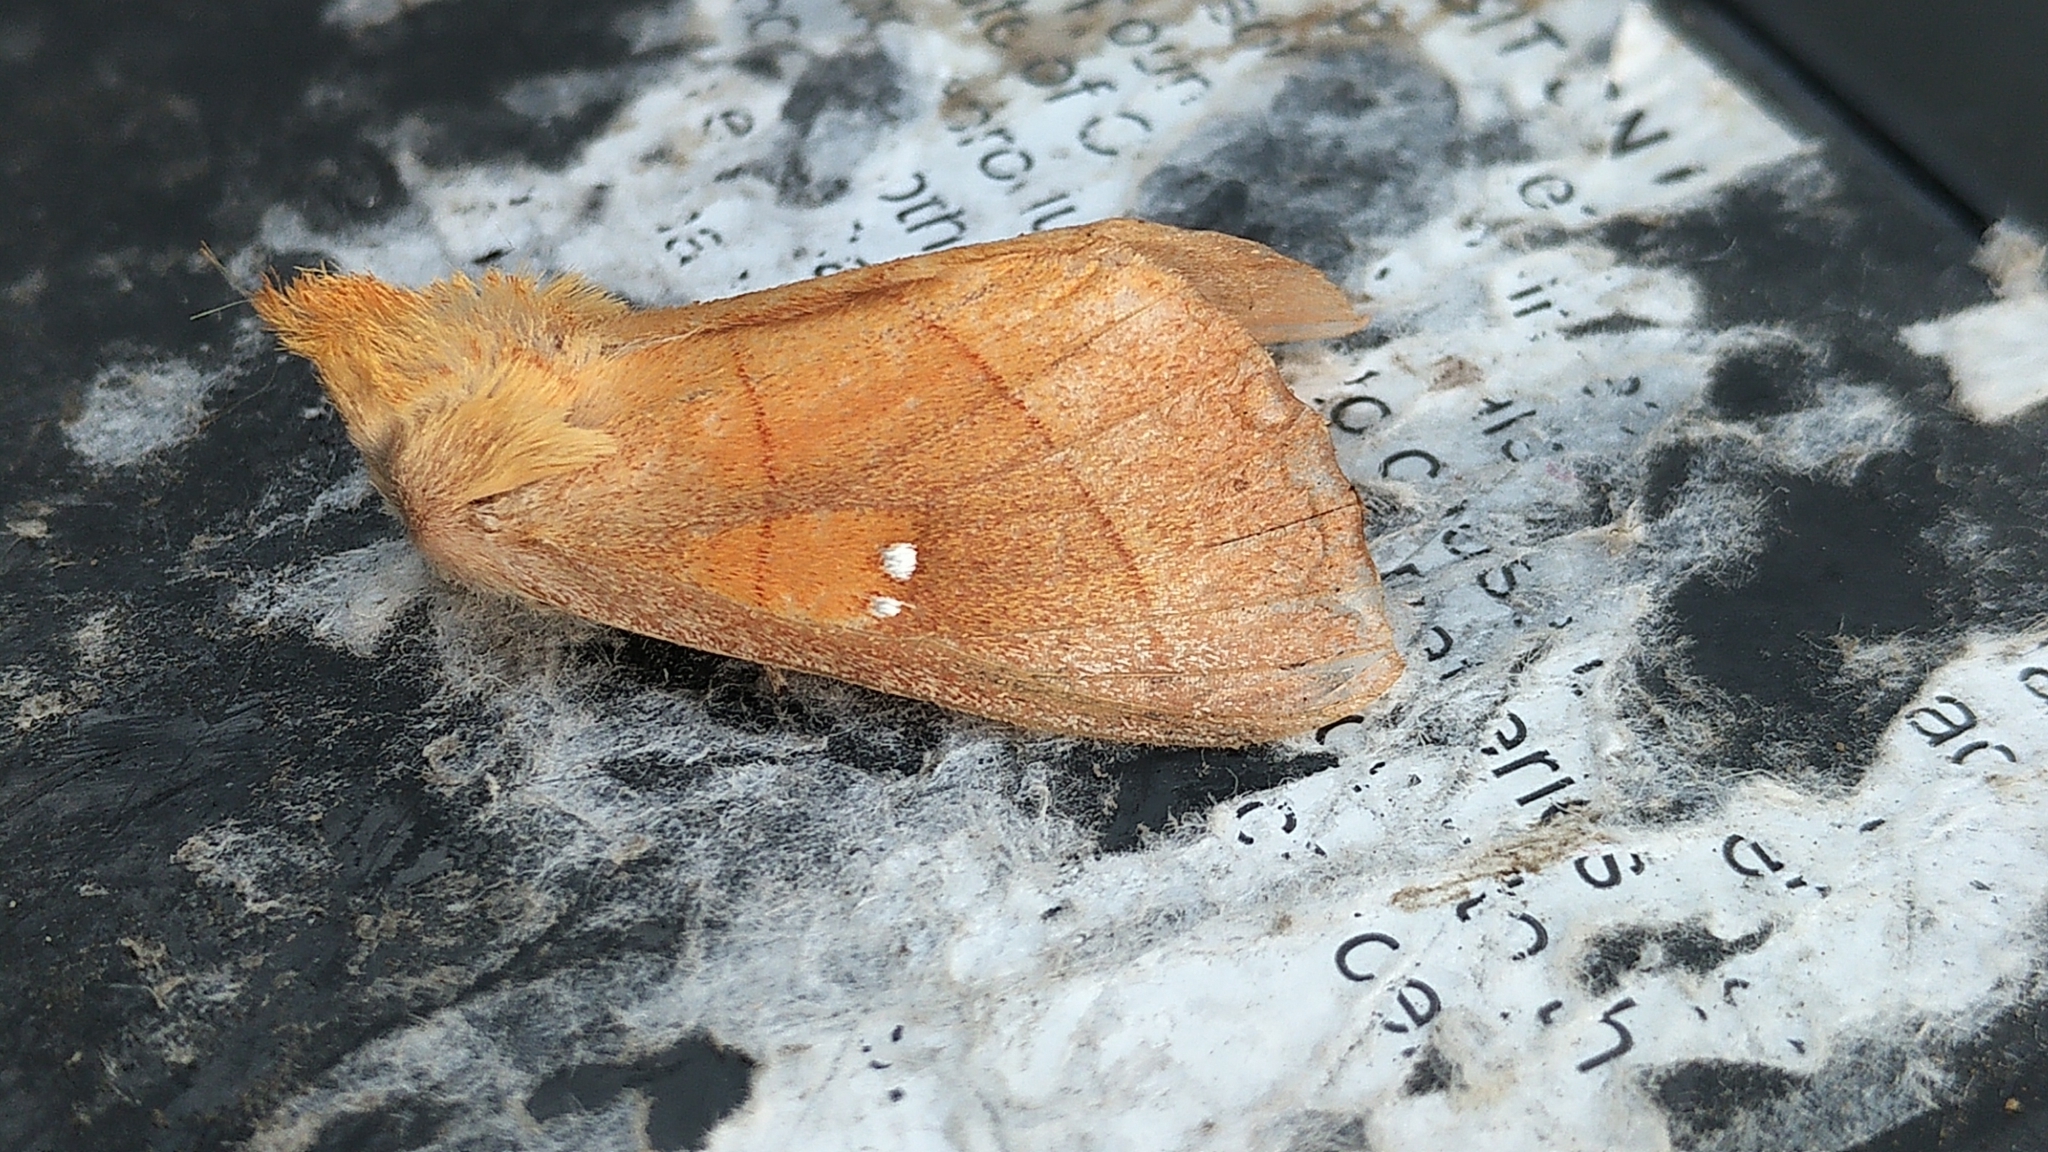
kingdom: Animalia
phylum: Arthropoda
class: Insecta
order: Lepidoptera
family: Notodontidae
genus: Nadata
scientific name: Nadata gibbosa
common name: White-dotted prominent
